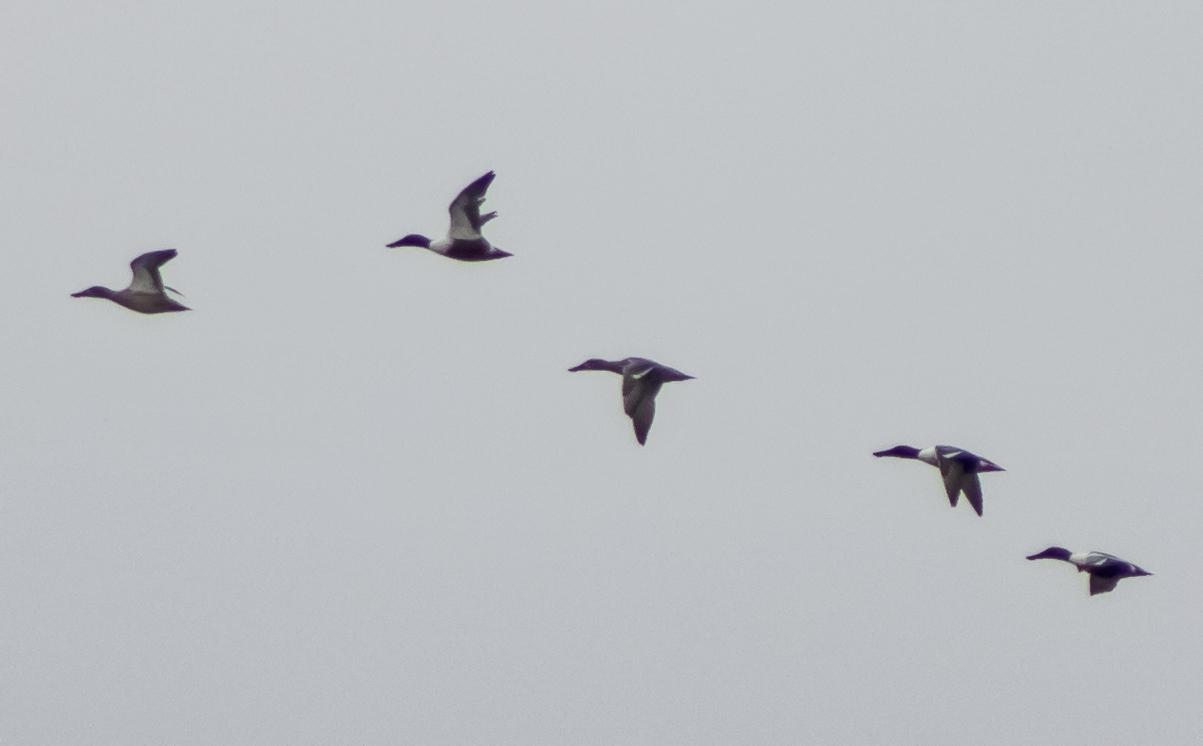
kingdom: Animalia
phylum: Chordata
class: Aves
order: Anseriformes
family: Anatidae
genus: Spatula
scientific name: Spatula clypeata
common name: Northern shoveler
